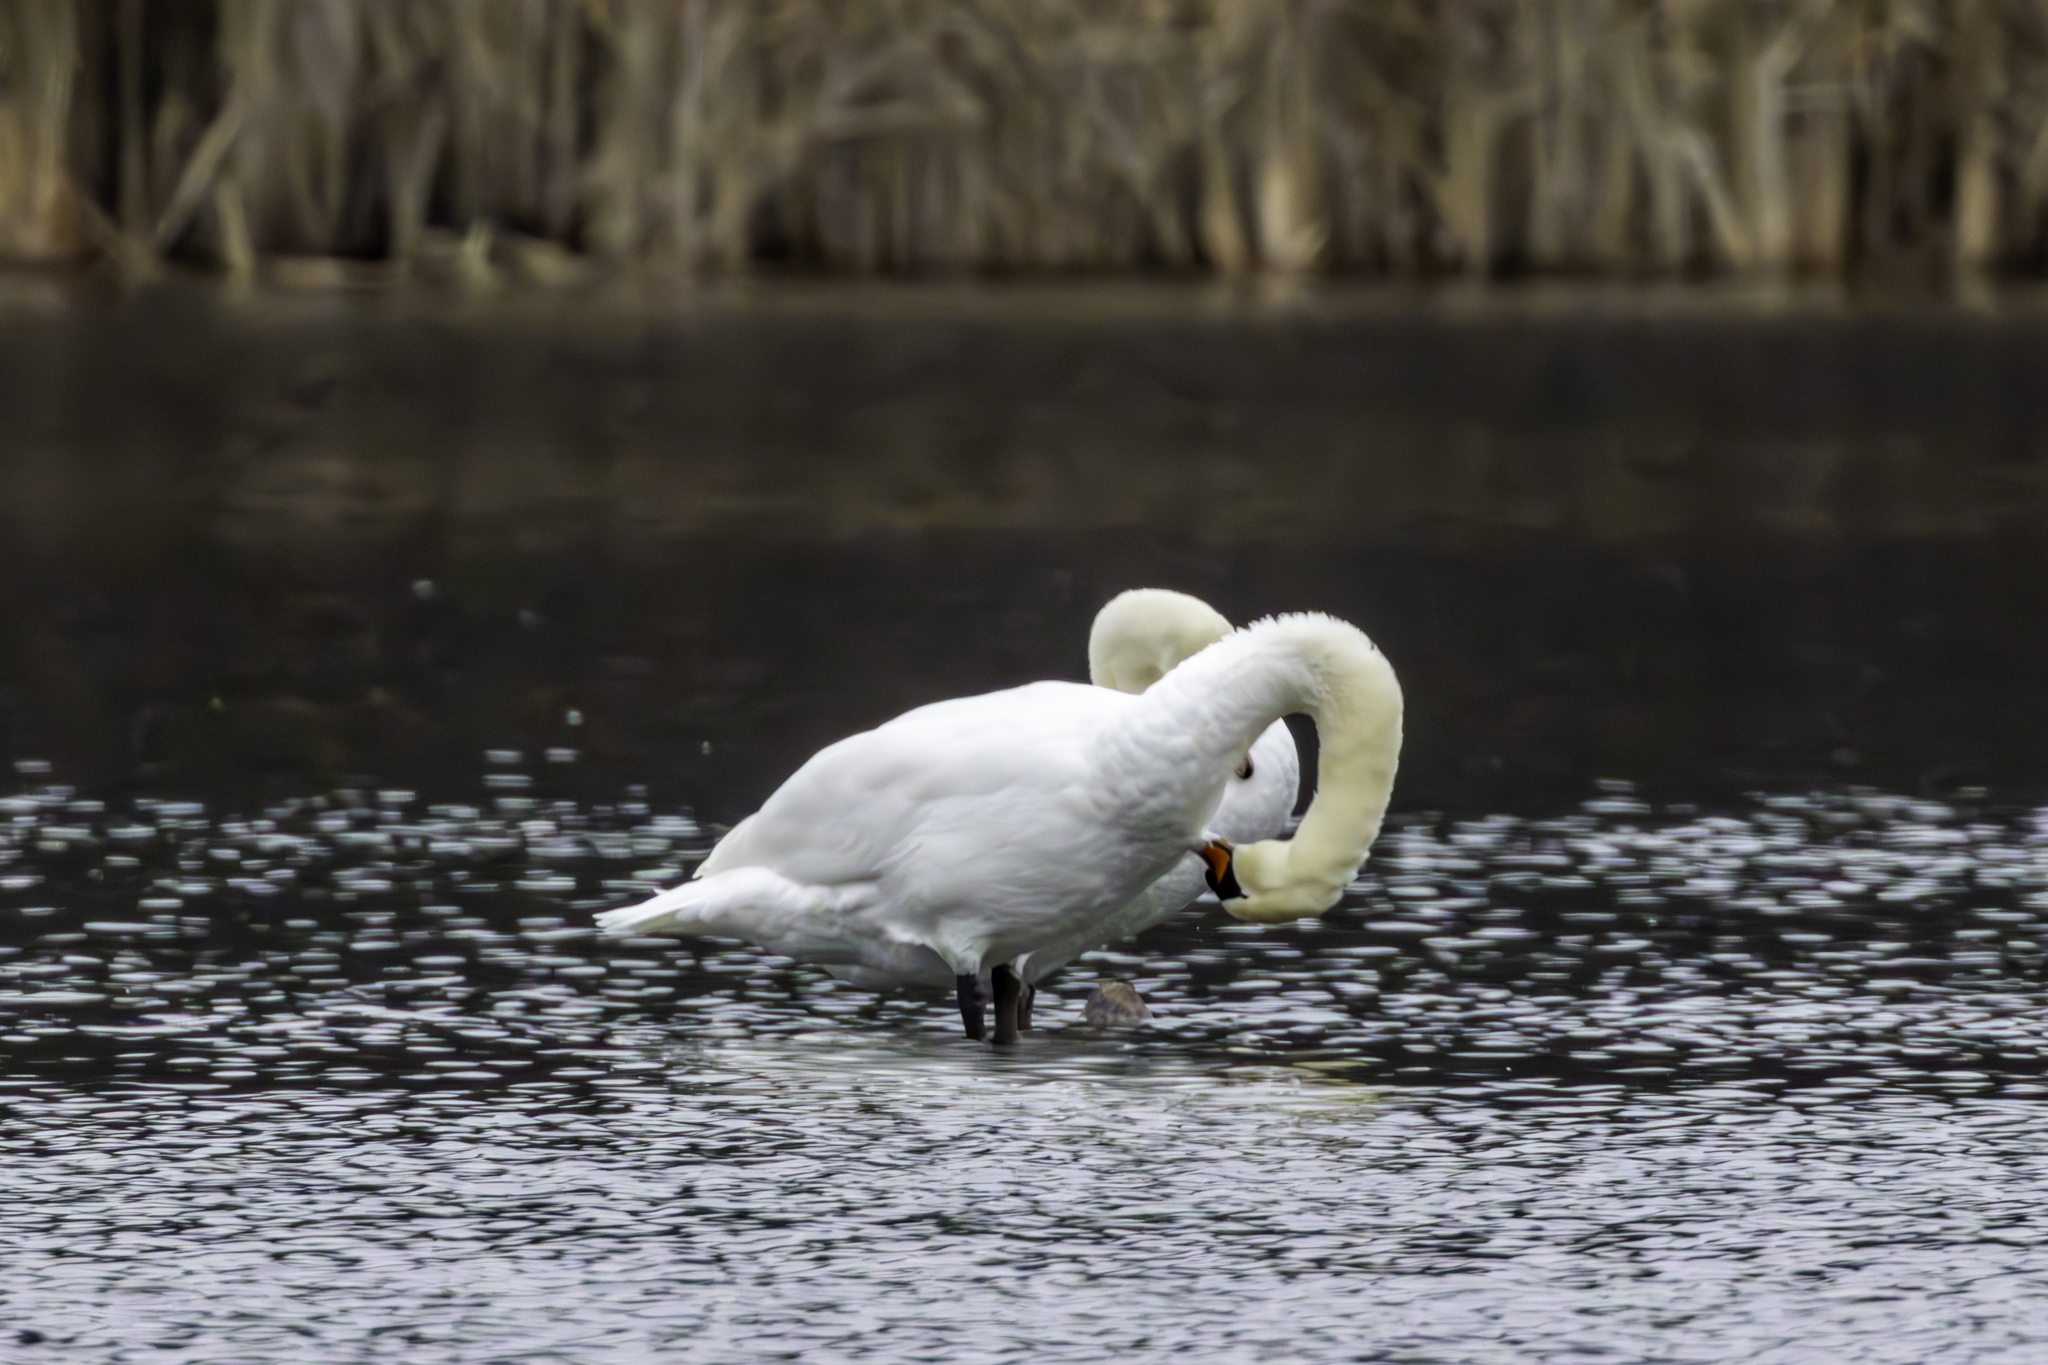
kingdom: Animalia
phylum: Chordata
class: Aves
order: Anseriformes
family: Anatidae
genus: Cygnus
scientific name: Cygnus olor
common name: Mute swan
